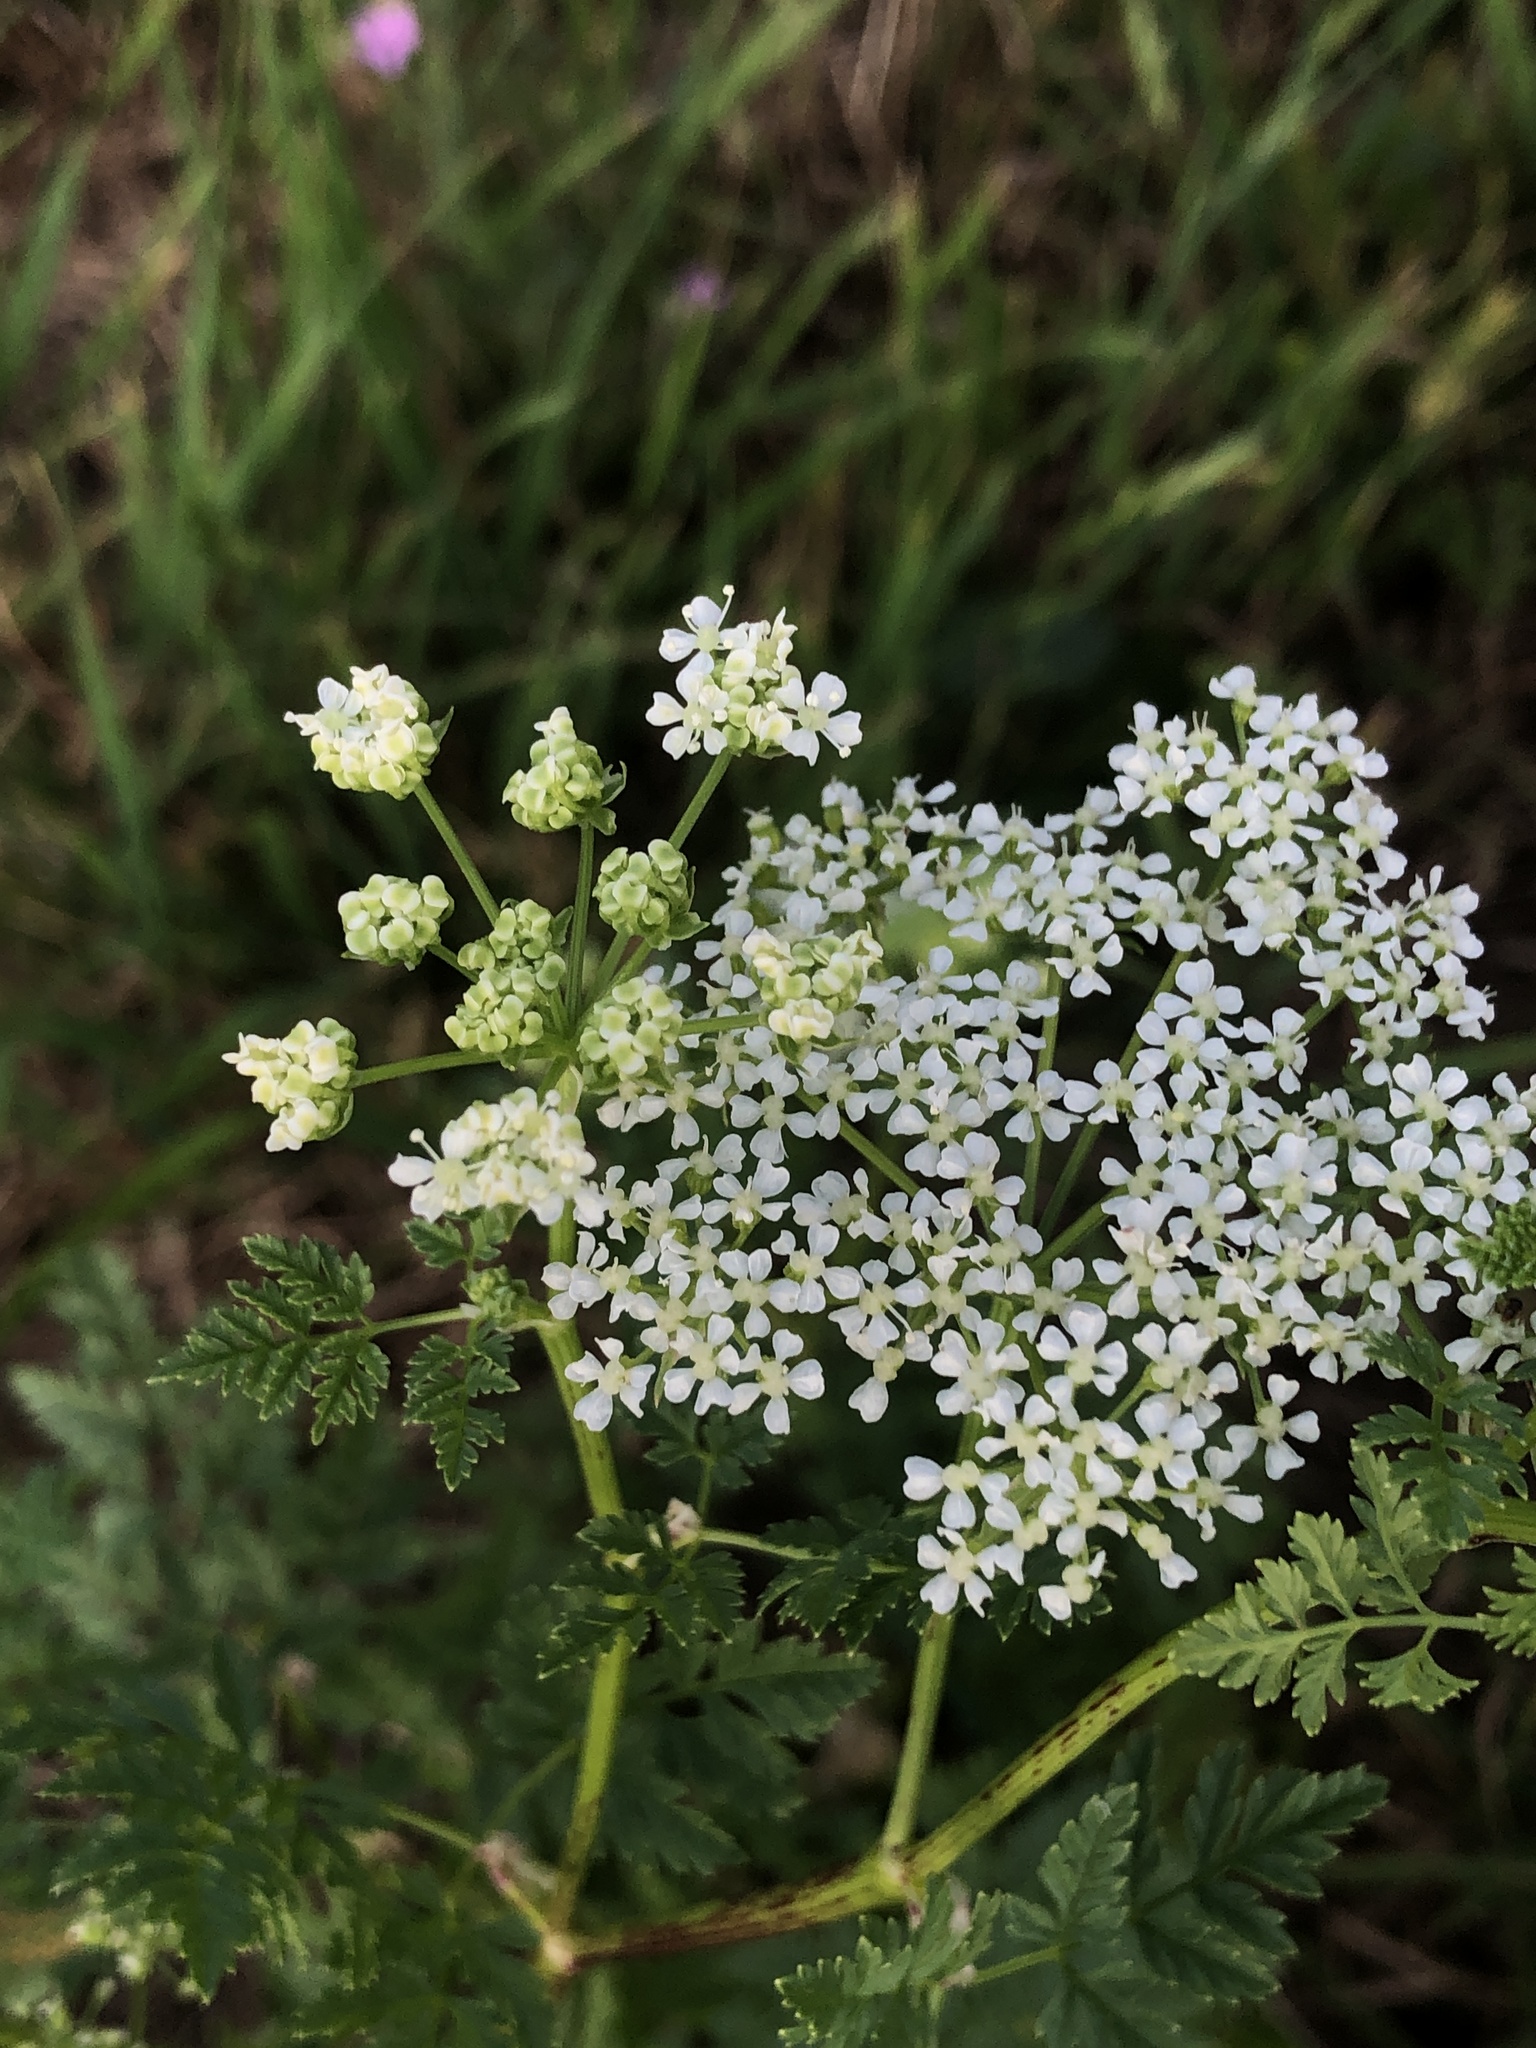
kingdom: Plantae
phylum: Tracheophyta
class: Magnoliopsida
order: Apiales
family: Apiaceae
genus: Conium
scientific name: Conium maculatum
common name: Hemlock
